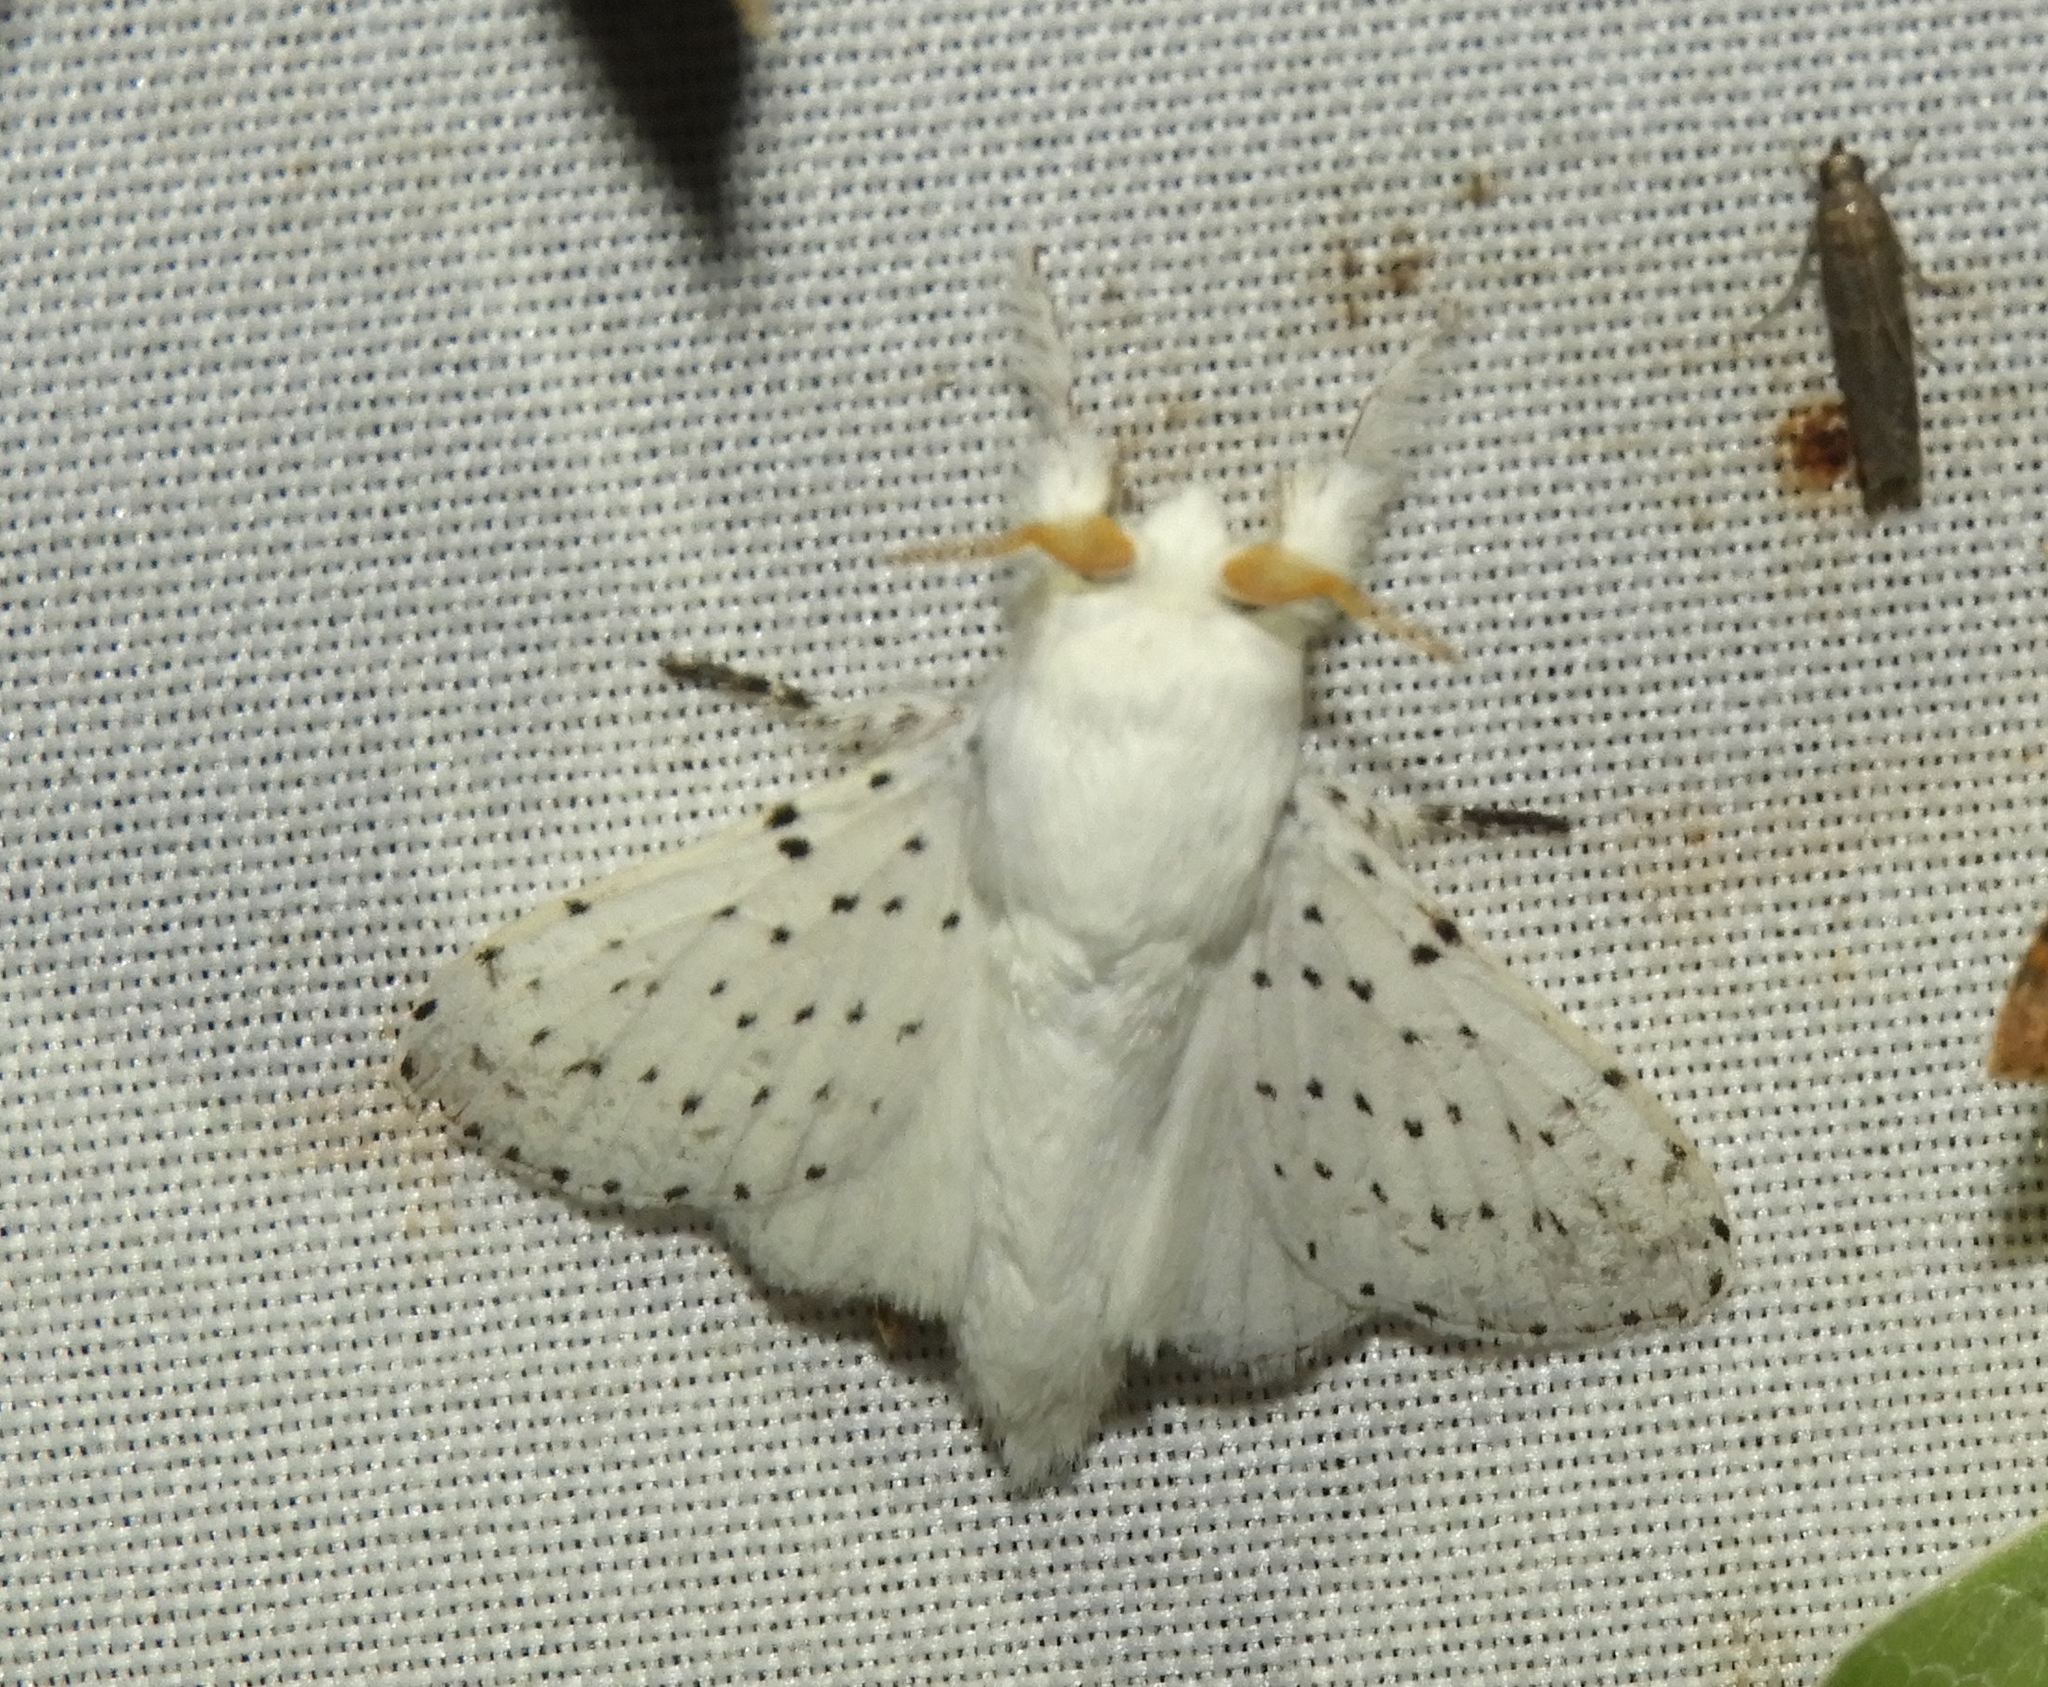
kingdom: Animalia
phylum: Arthropoda
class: Insecta
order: Lepidoptera
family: Lasiocampidae
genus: Artace
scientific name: Artace
